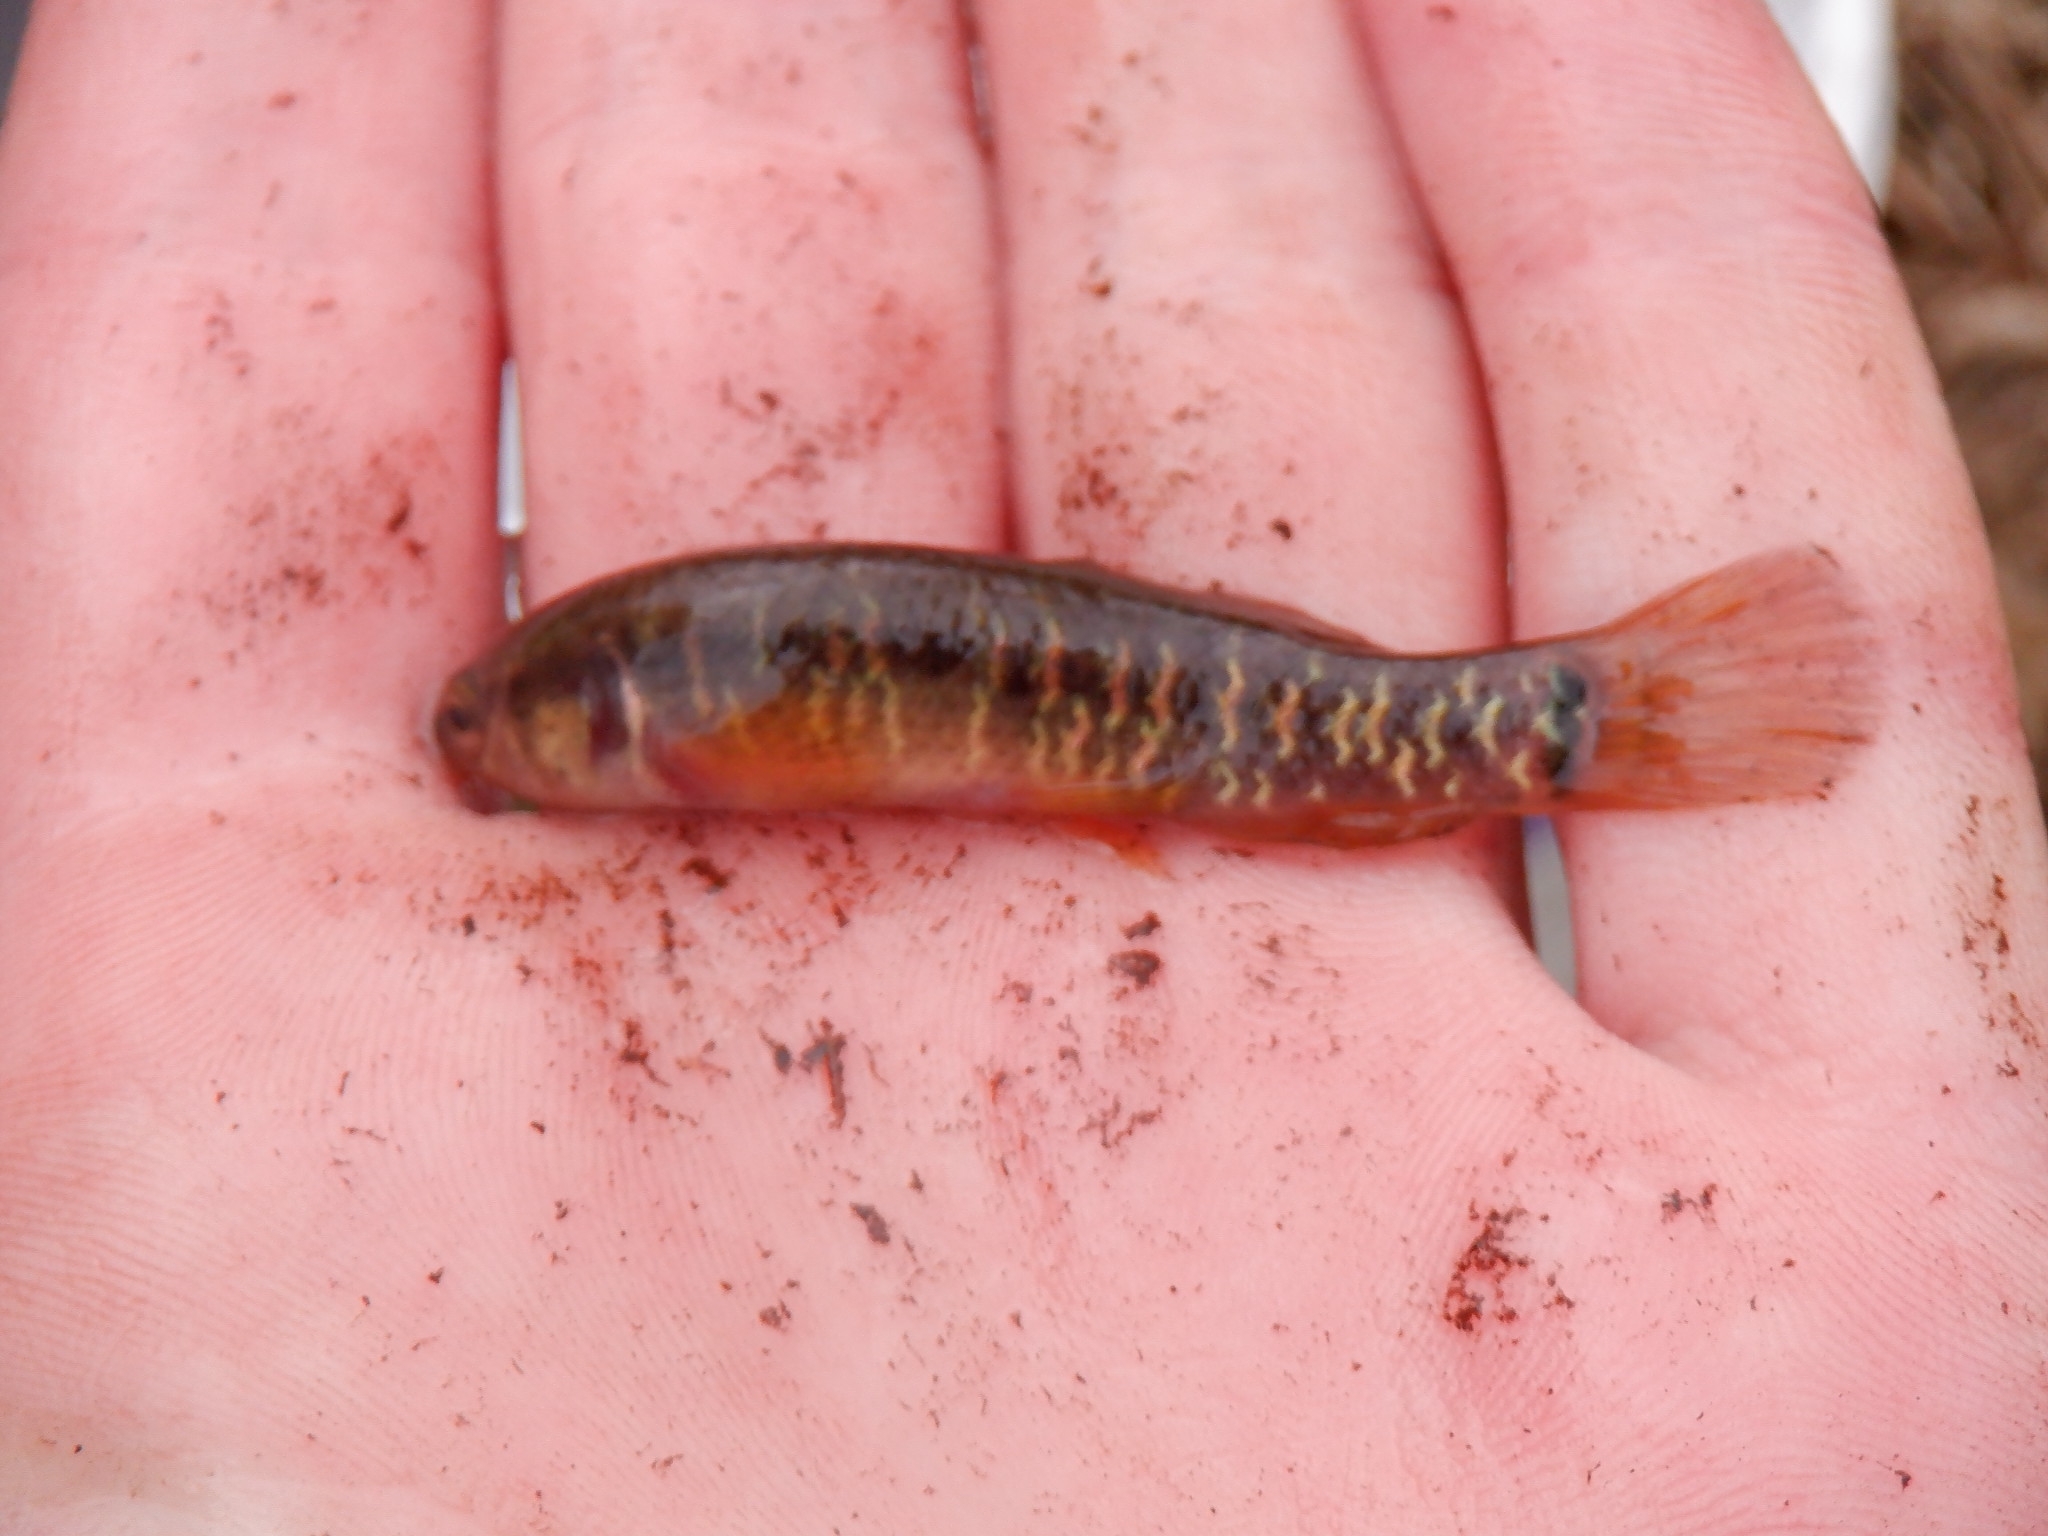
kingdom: Animalia
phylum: Chordata
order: Esociformes
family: Umbridae
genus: Umbra
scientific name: Umbra limi
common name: Central mudminnow
